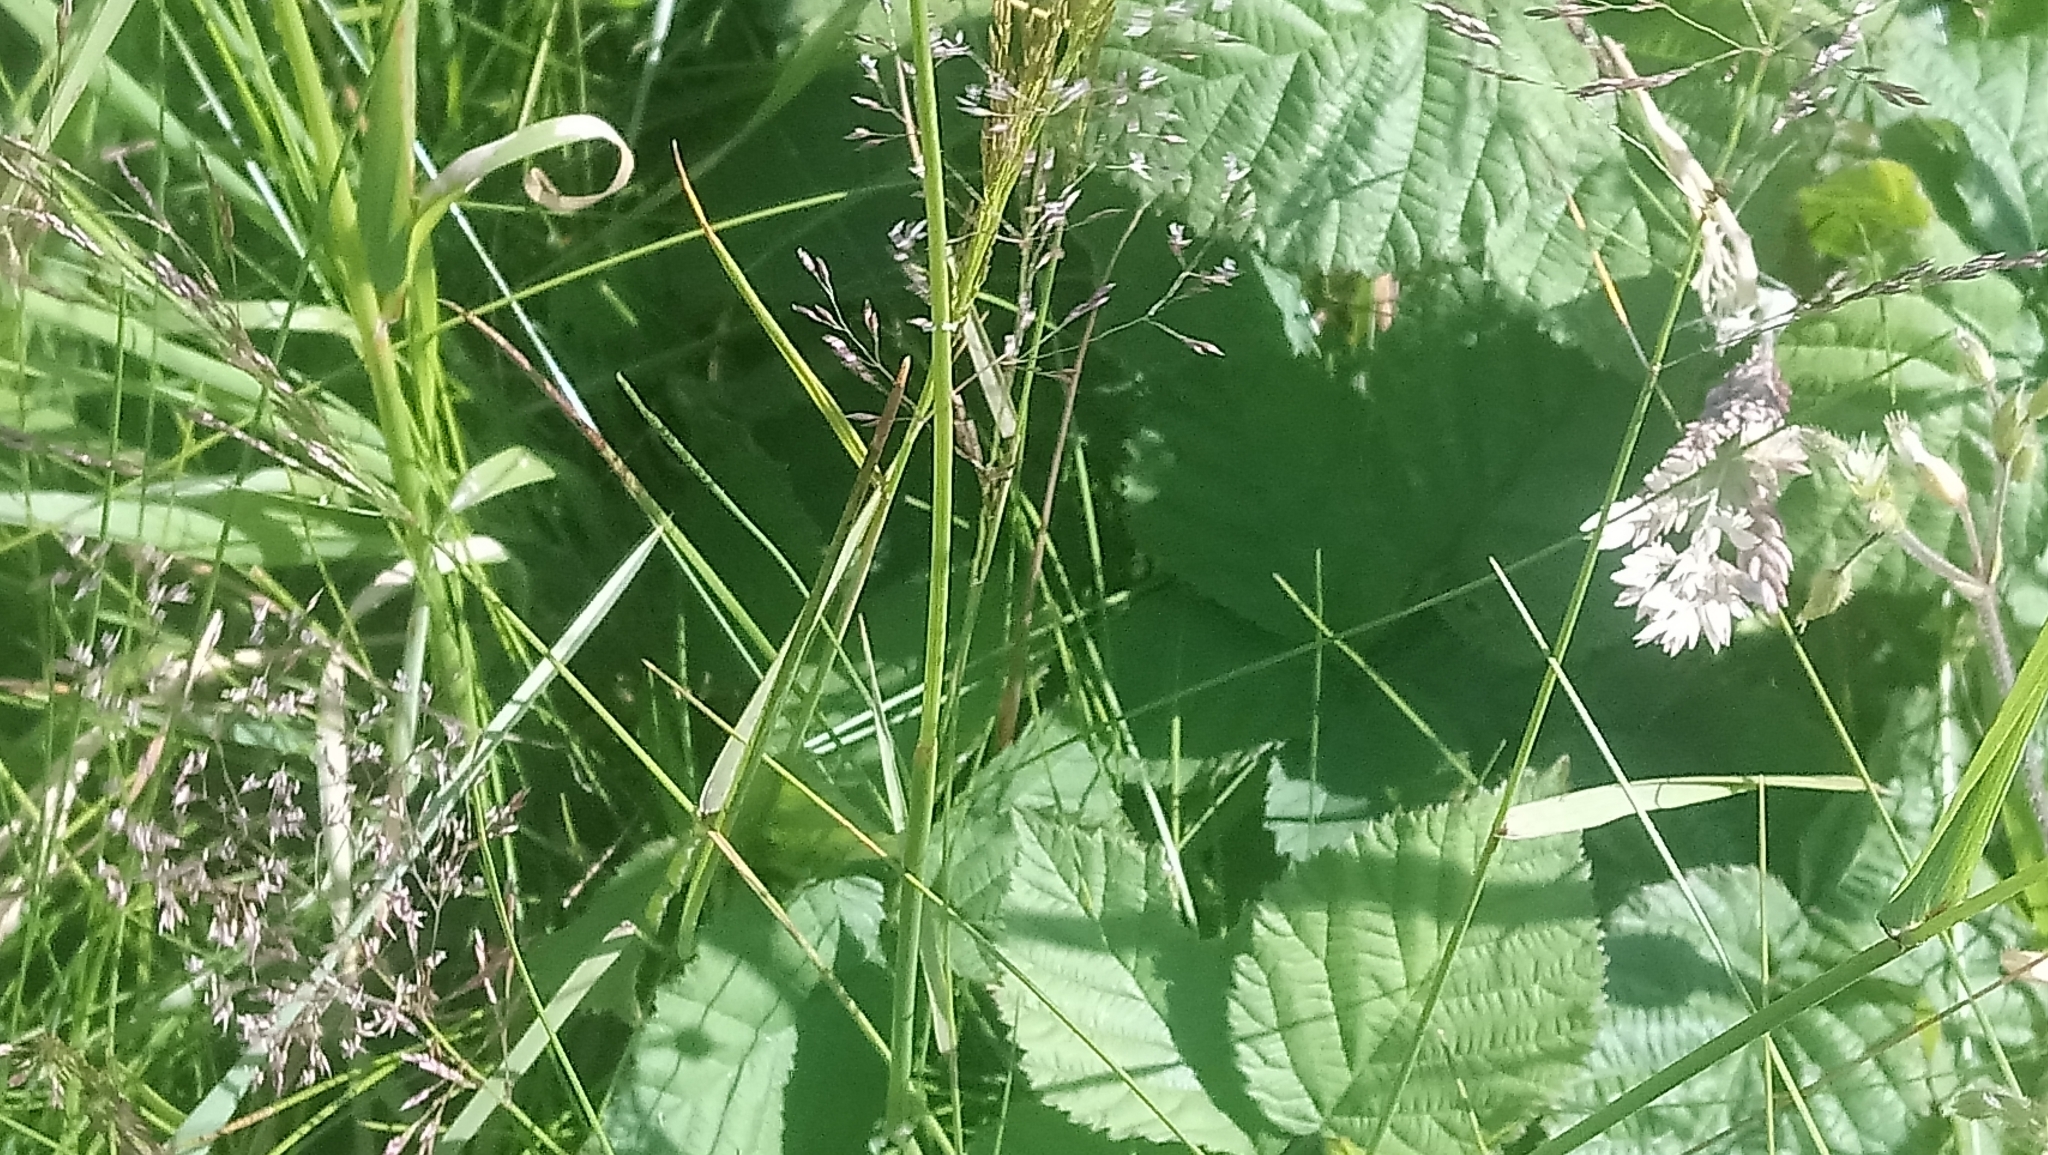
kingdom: Animalia
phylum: Arthropoda
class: Insecta
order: Coleoptera
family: Cantharidae
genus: Rhagonycha
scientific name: Rhagonycha fulva
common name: Common red soldier beetle
